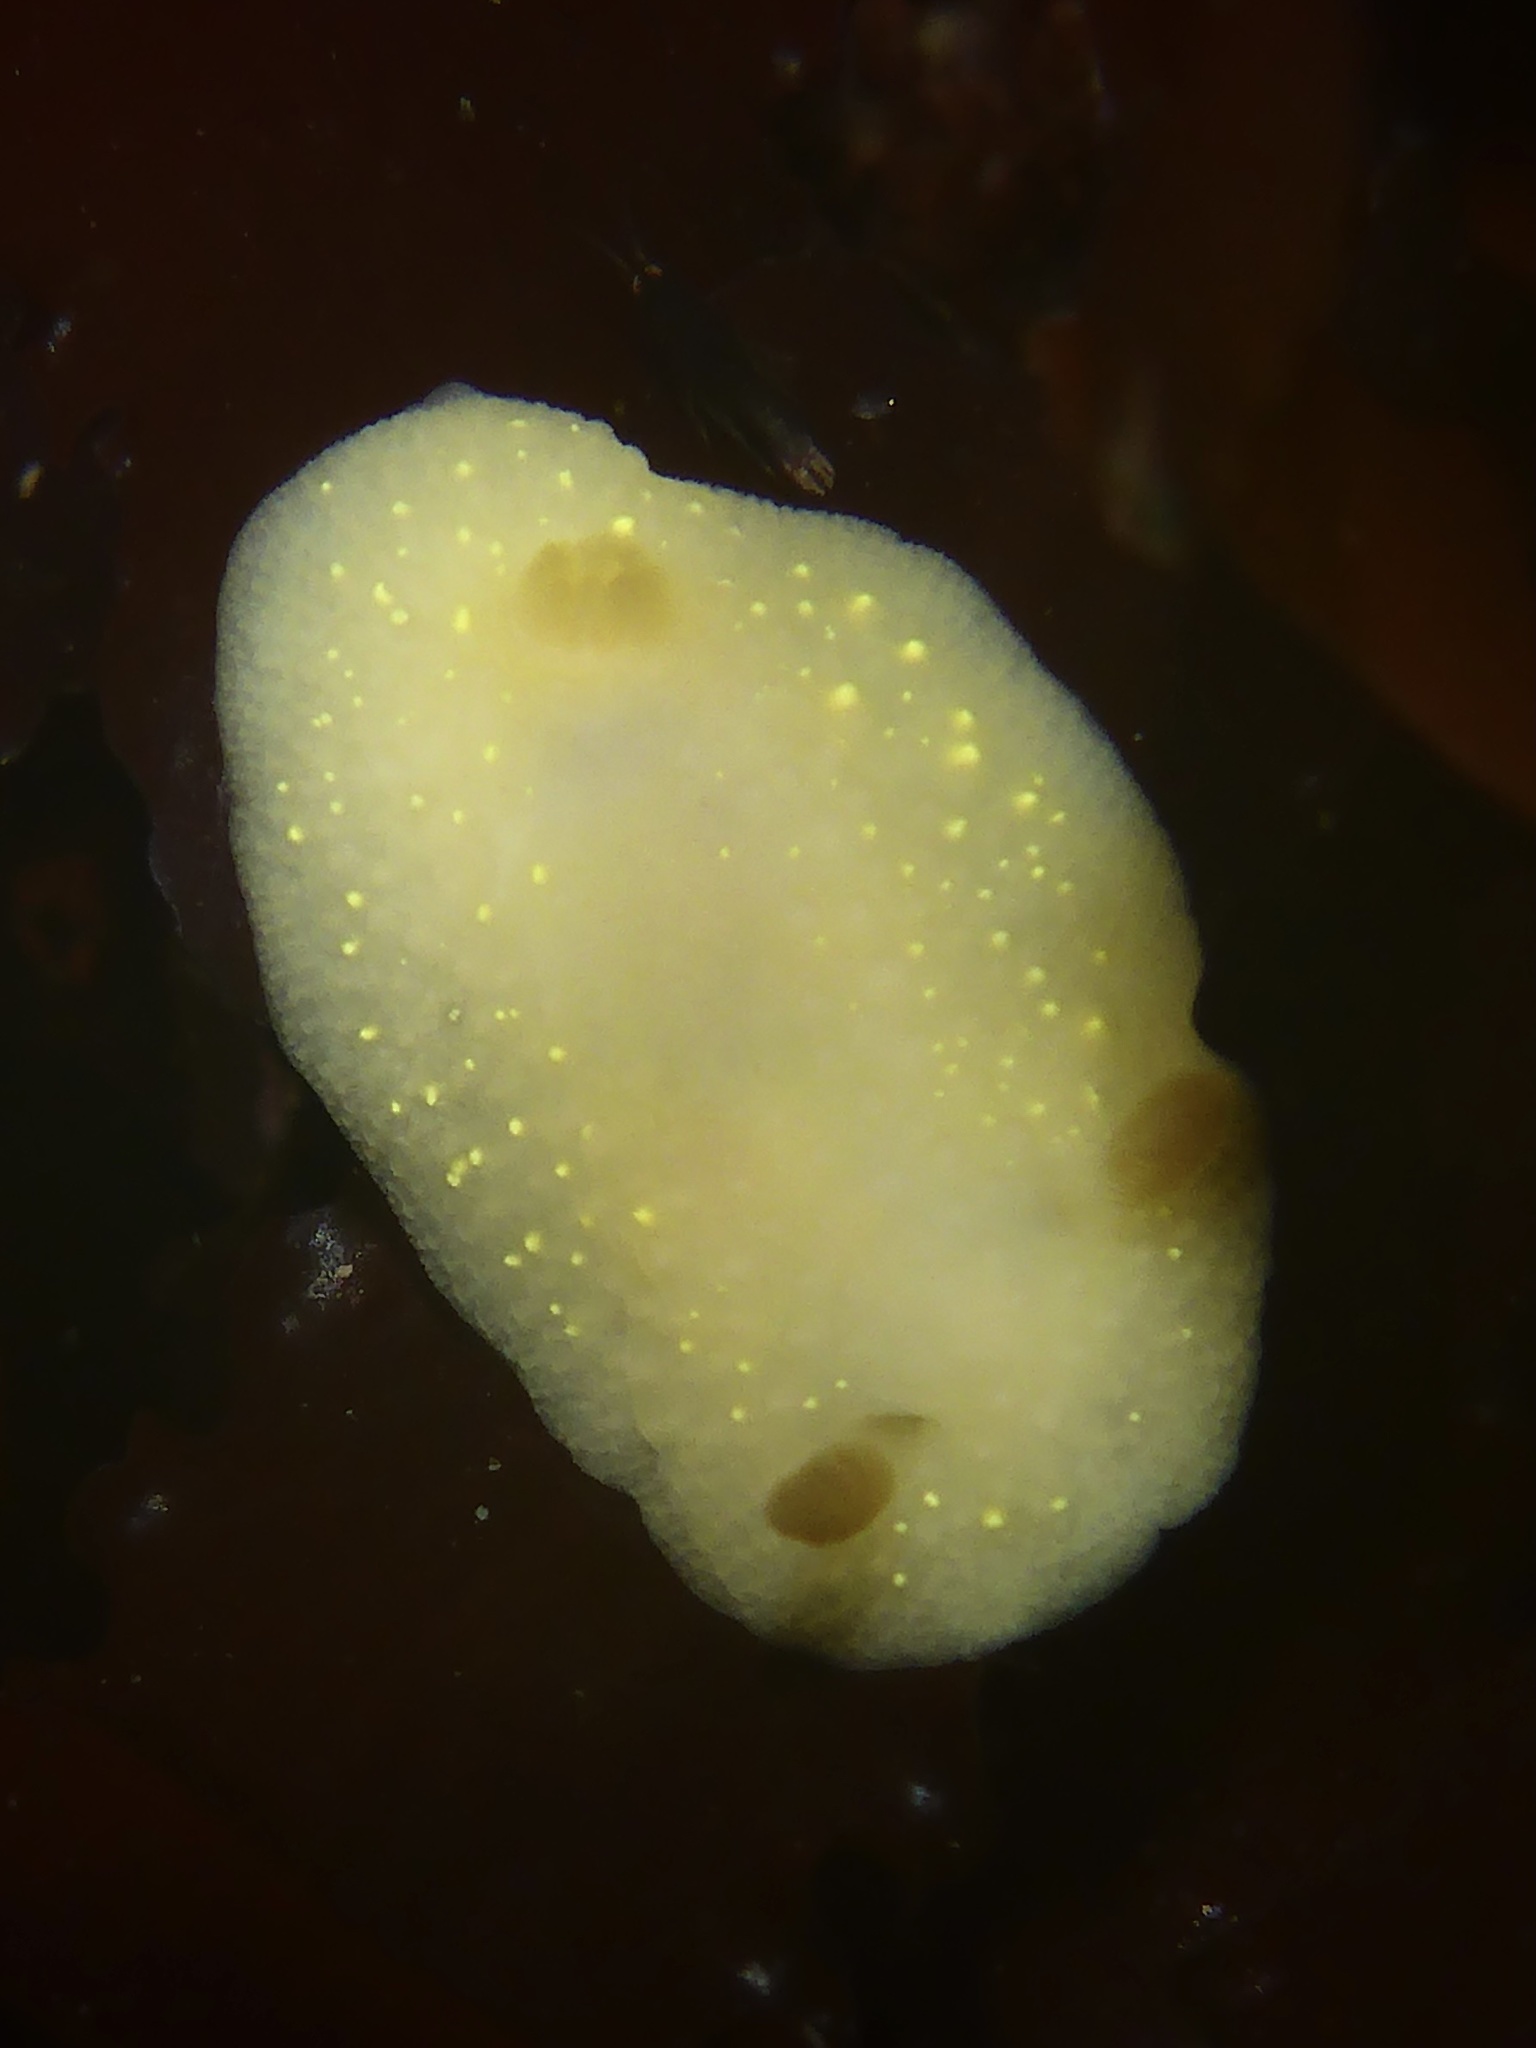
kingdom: Animalia
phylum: Mollusca
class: Gastropoda
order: Nudibranchia
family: Cadlinidae
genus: Cadlina
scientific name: Cadlina modesta
